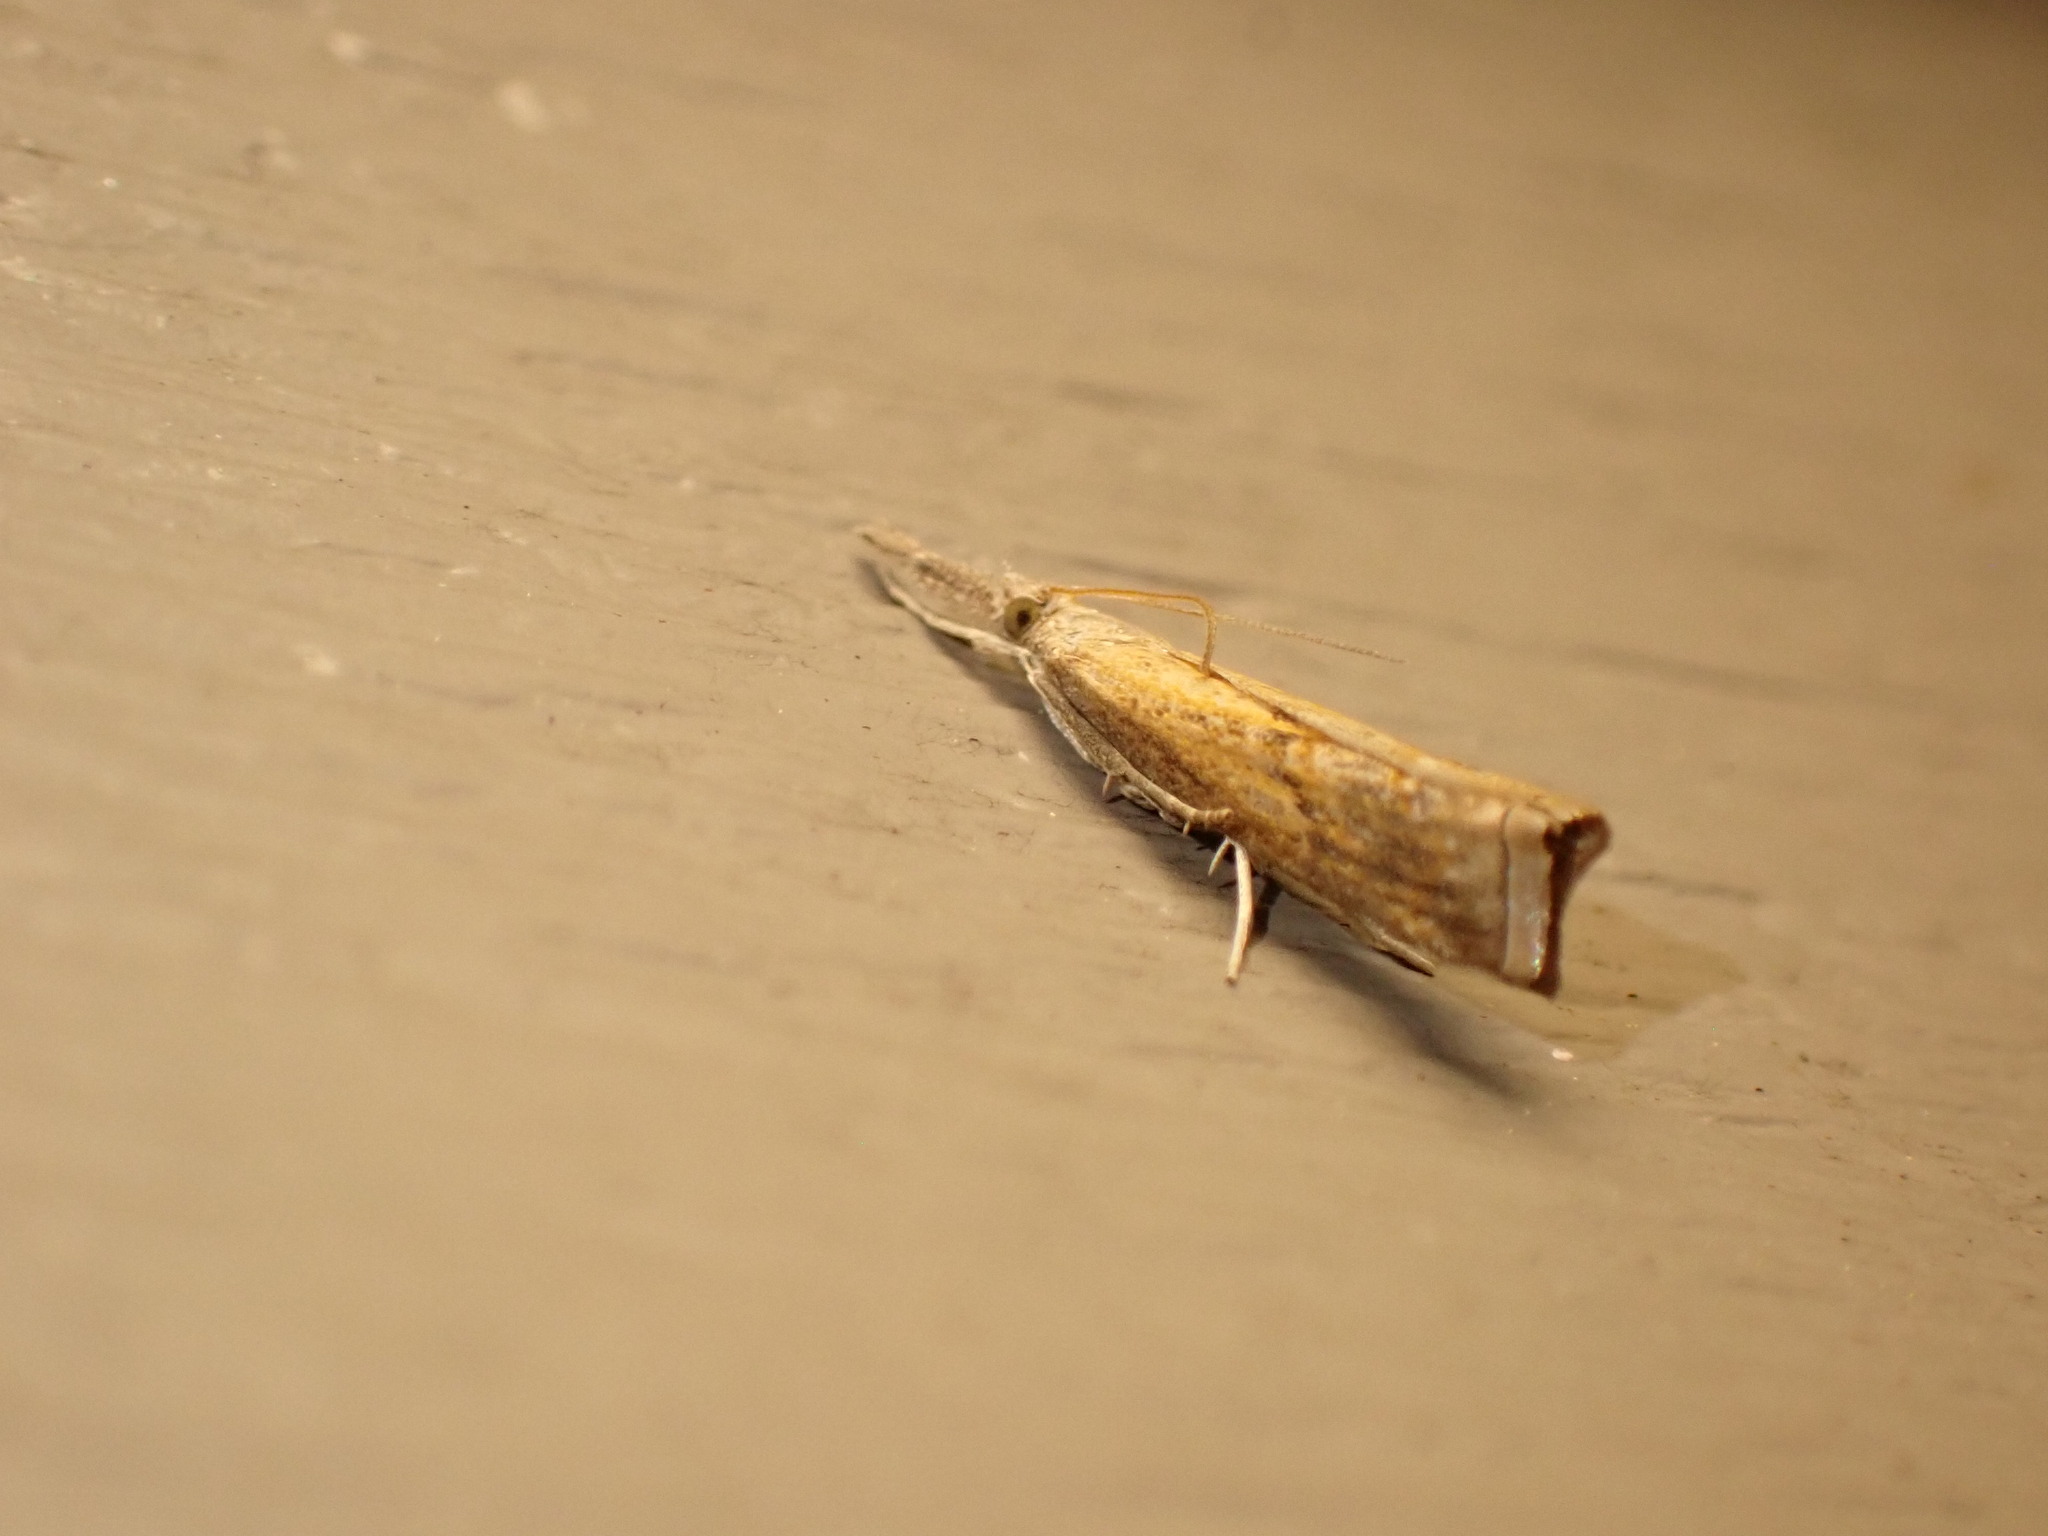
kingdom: Animalia
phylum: Arthropoda
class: Insecta
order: Lepidoptera
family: Crambidae
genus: Neodactria
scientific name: Neodactria
